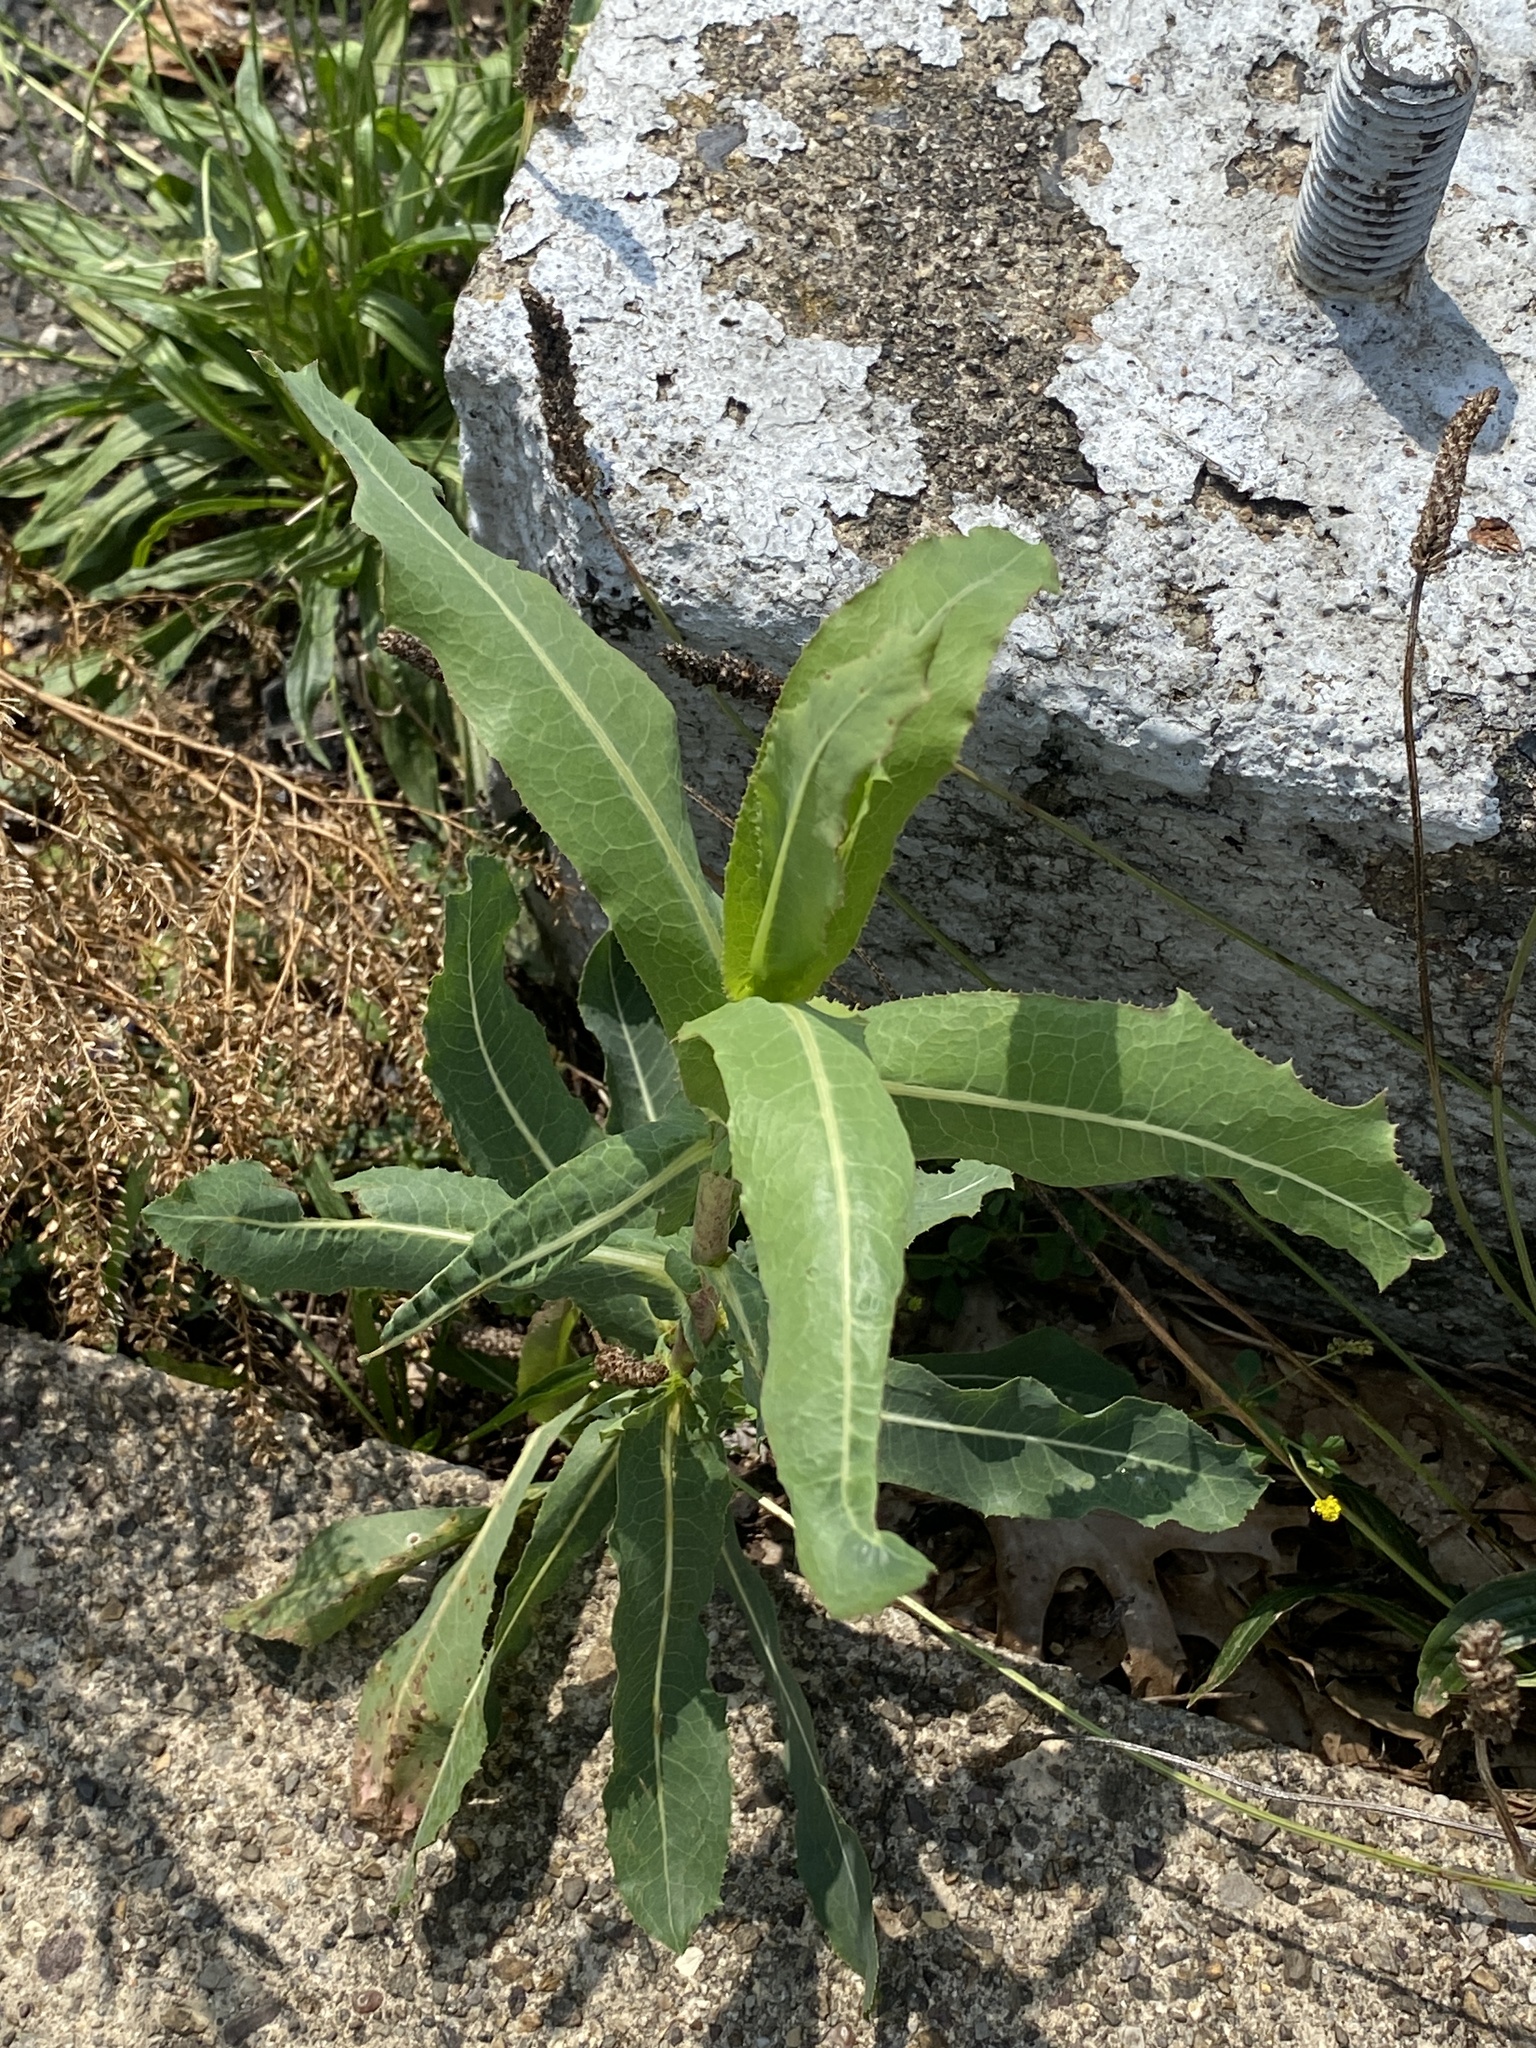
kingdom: Plantae
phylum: Tracheophyta
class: Magnoliopsida
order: Asterales
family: Asteraceae
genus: Lactuca
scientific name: Lactuca serriola
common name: Prickly lettuce
